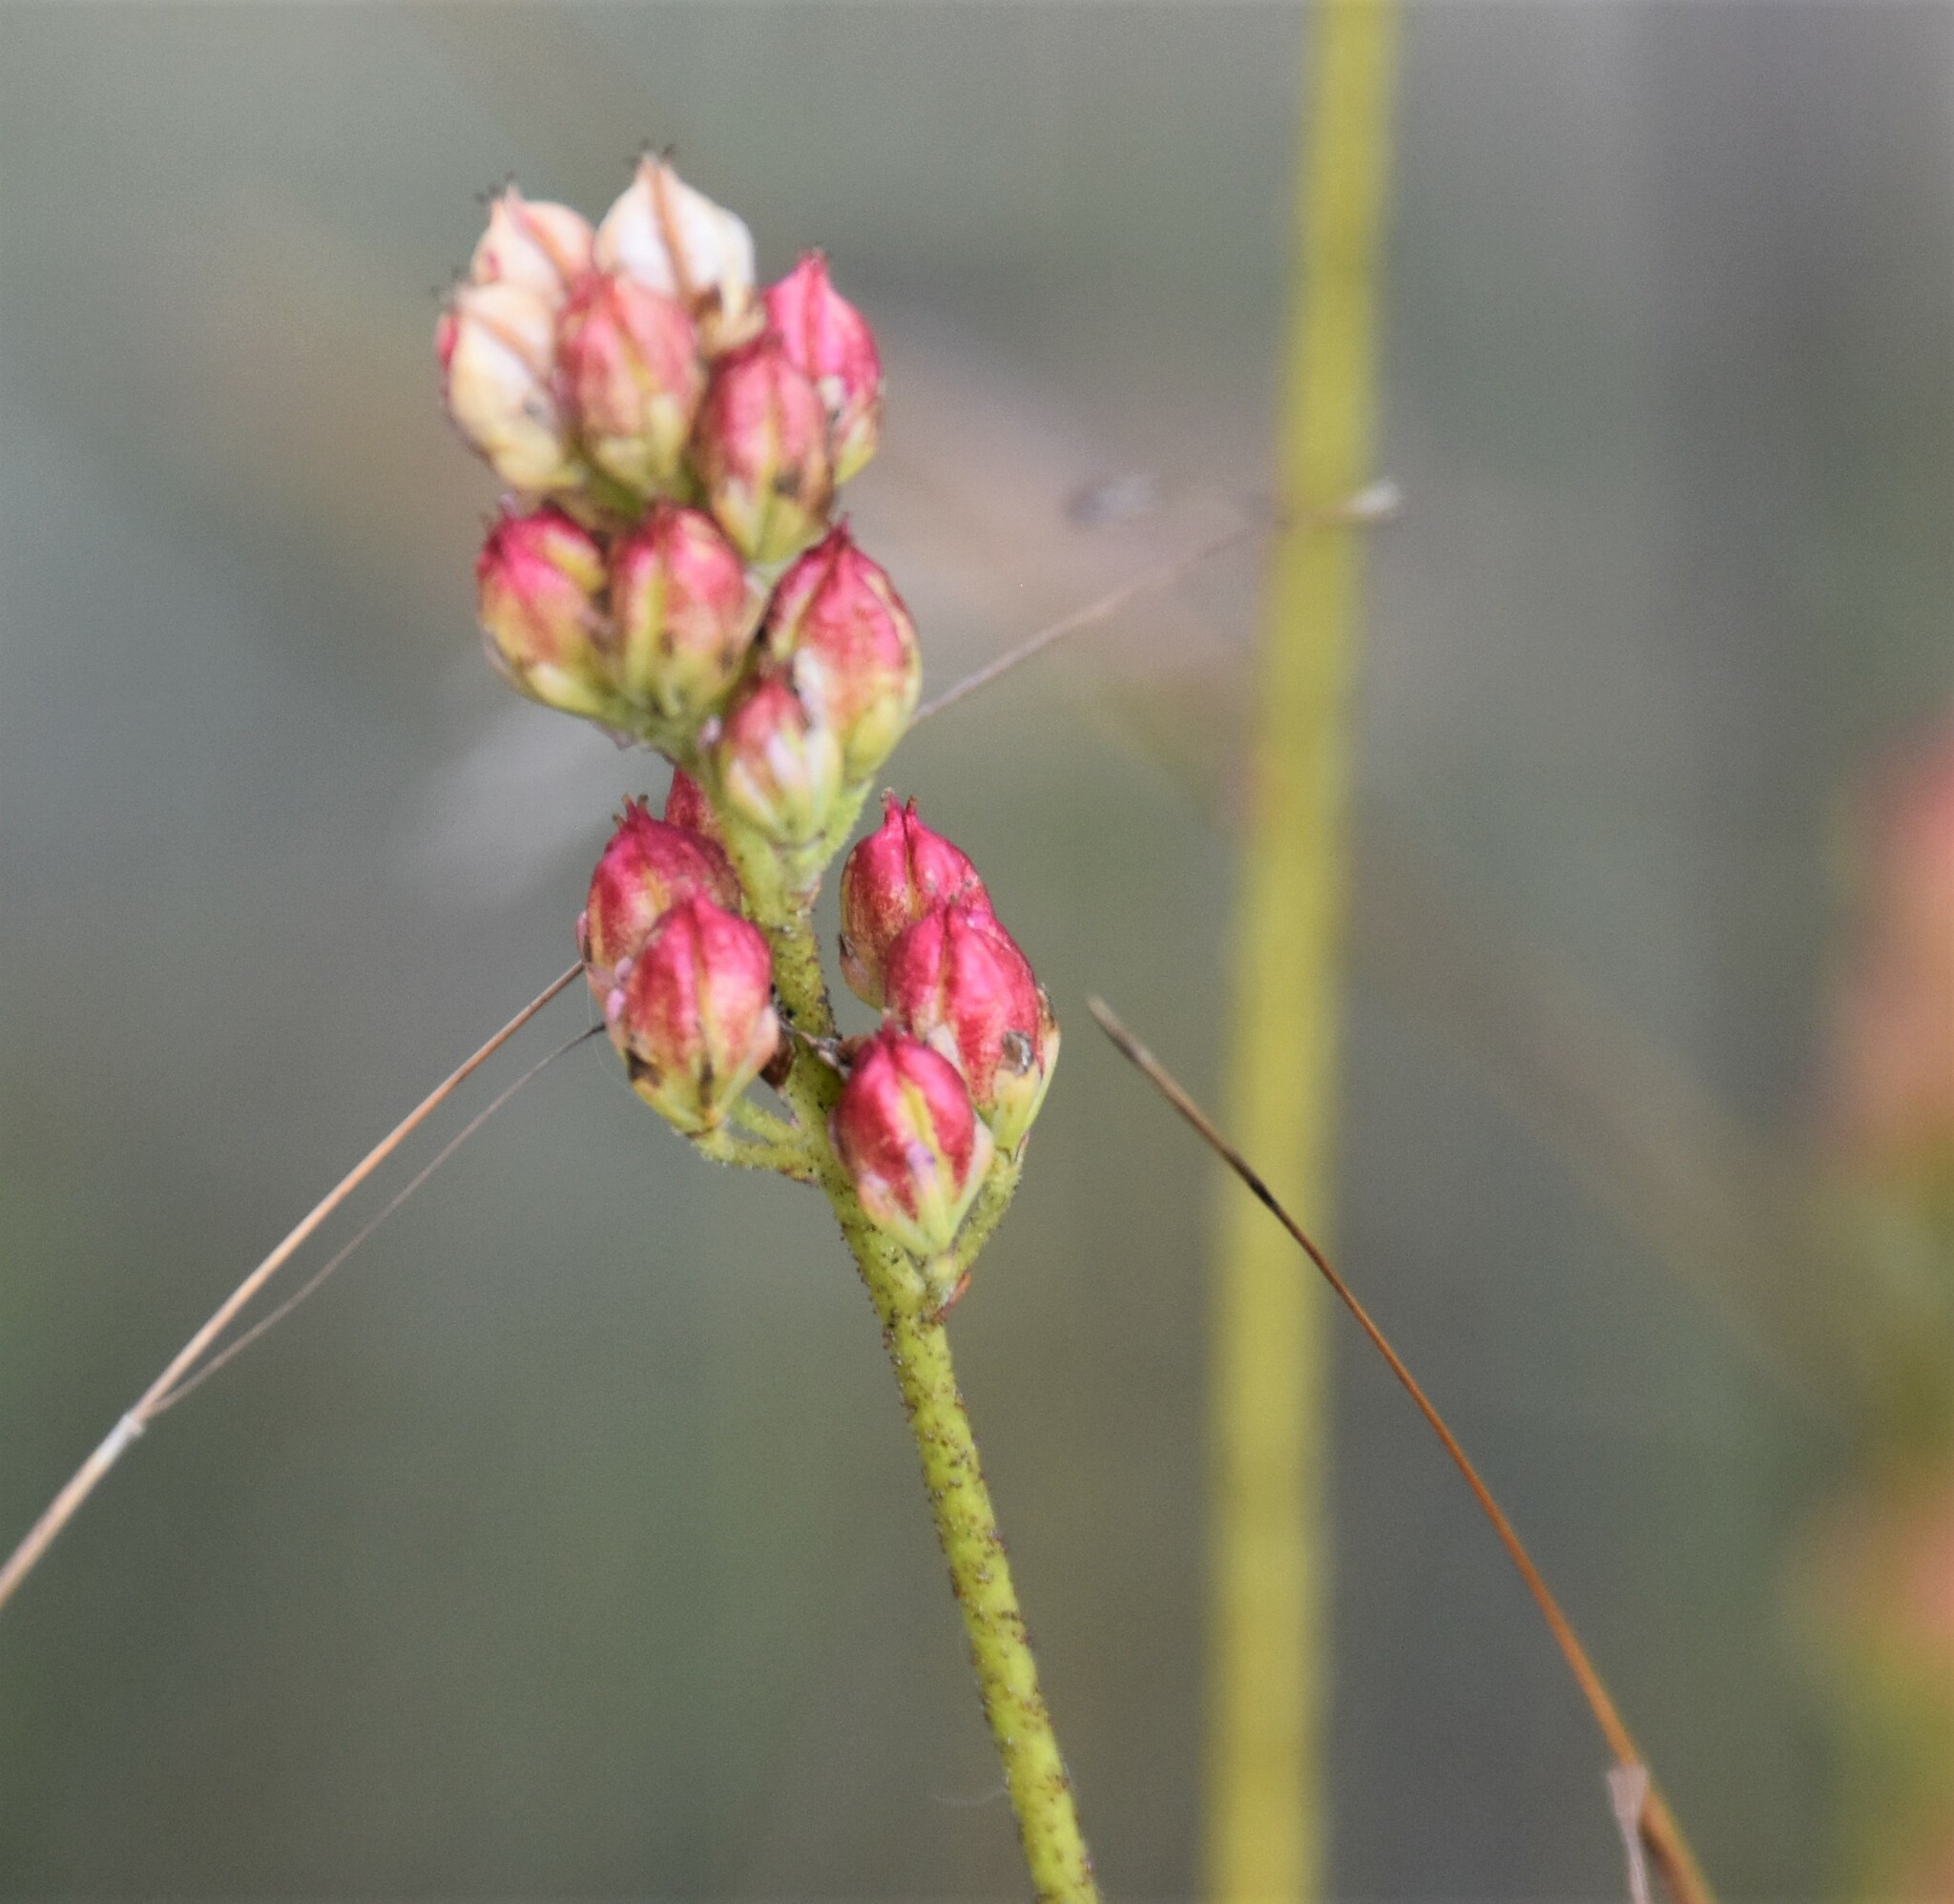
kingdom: Plantae
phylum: Tracheophyta
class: Liliopsida
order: Alismatales
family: Tofieldiaceae
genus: Triantha
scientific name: Triantha glutinosa
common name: Glutinous tofieldia
